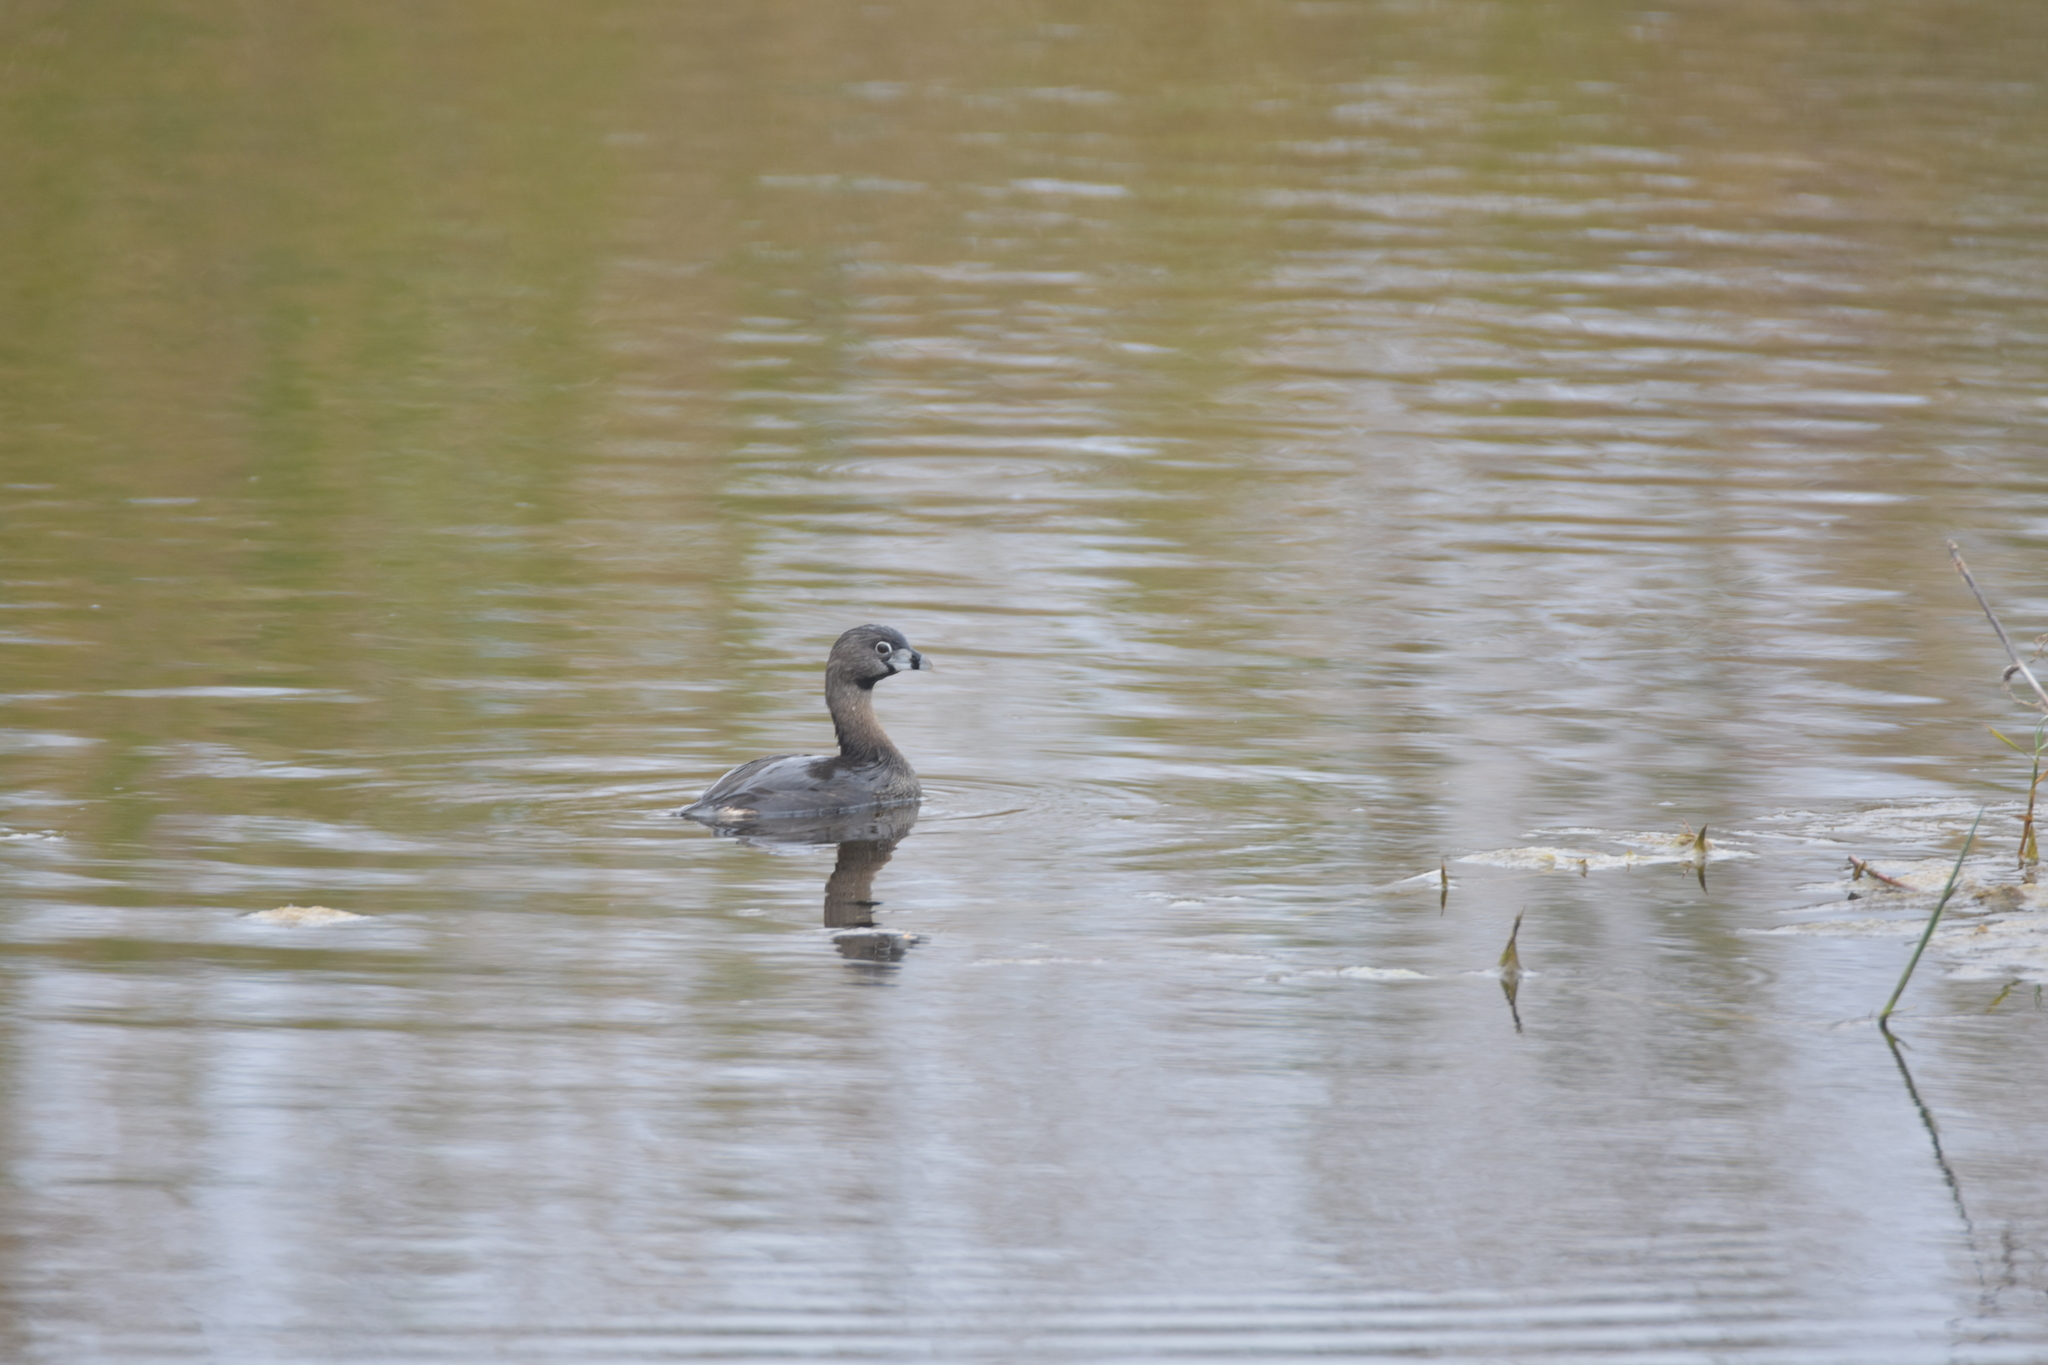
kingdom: Animalia
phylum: Chordata
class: Aves
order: Podicipediformes
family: Podicipedidae
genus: Podilymbus
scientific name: Podilymbus podiceps
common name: Pied-billed grebe
